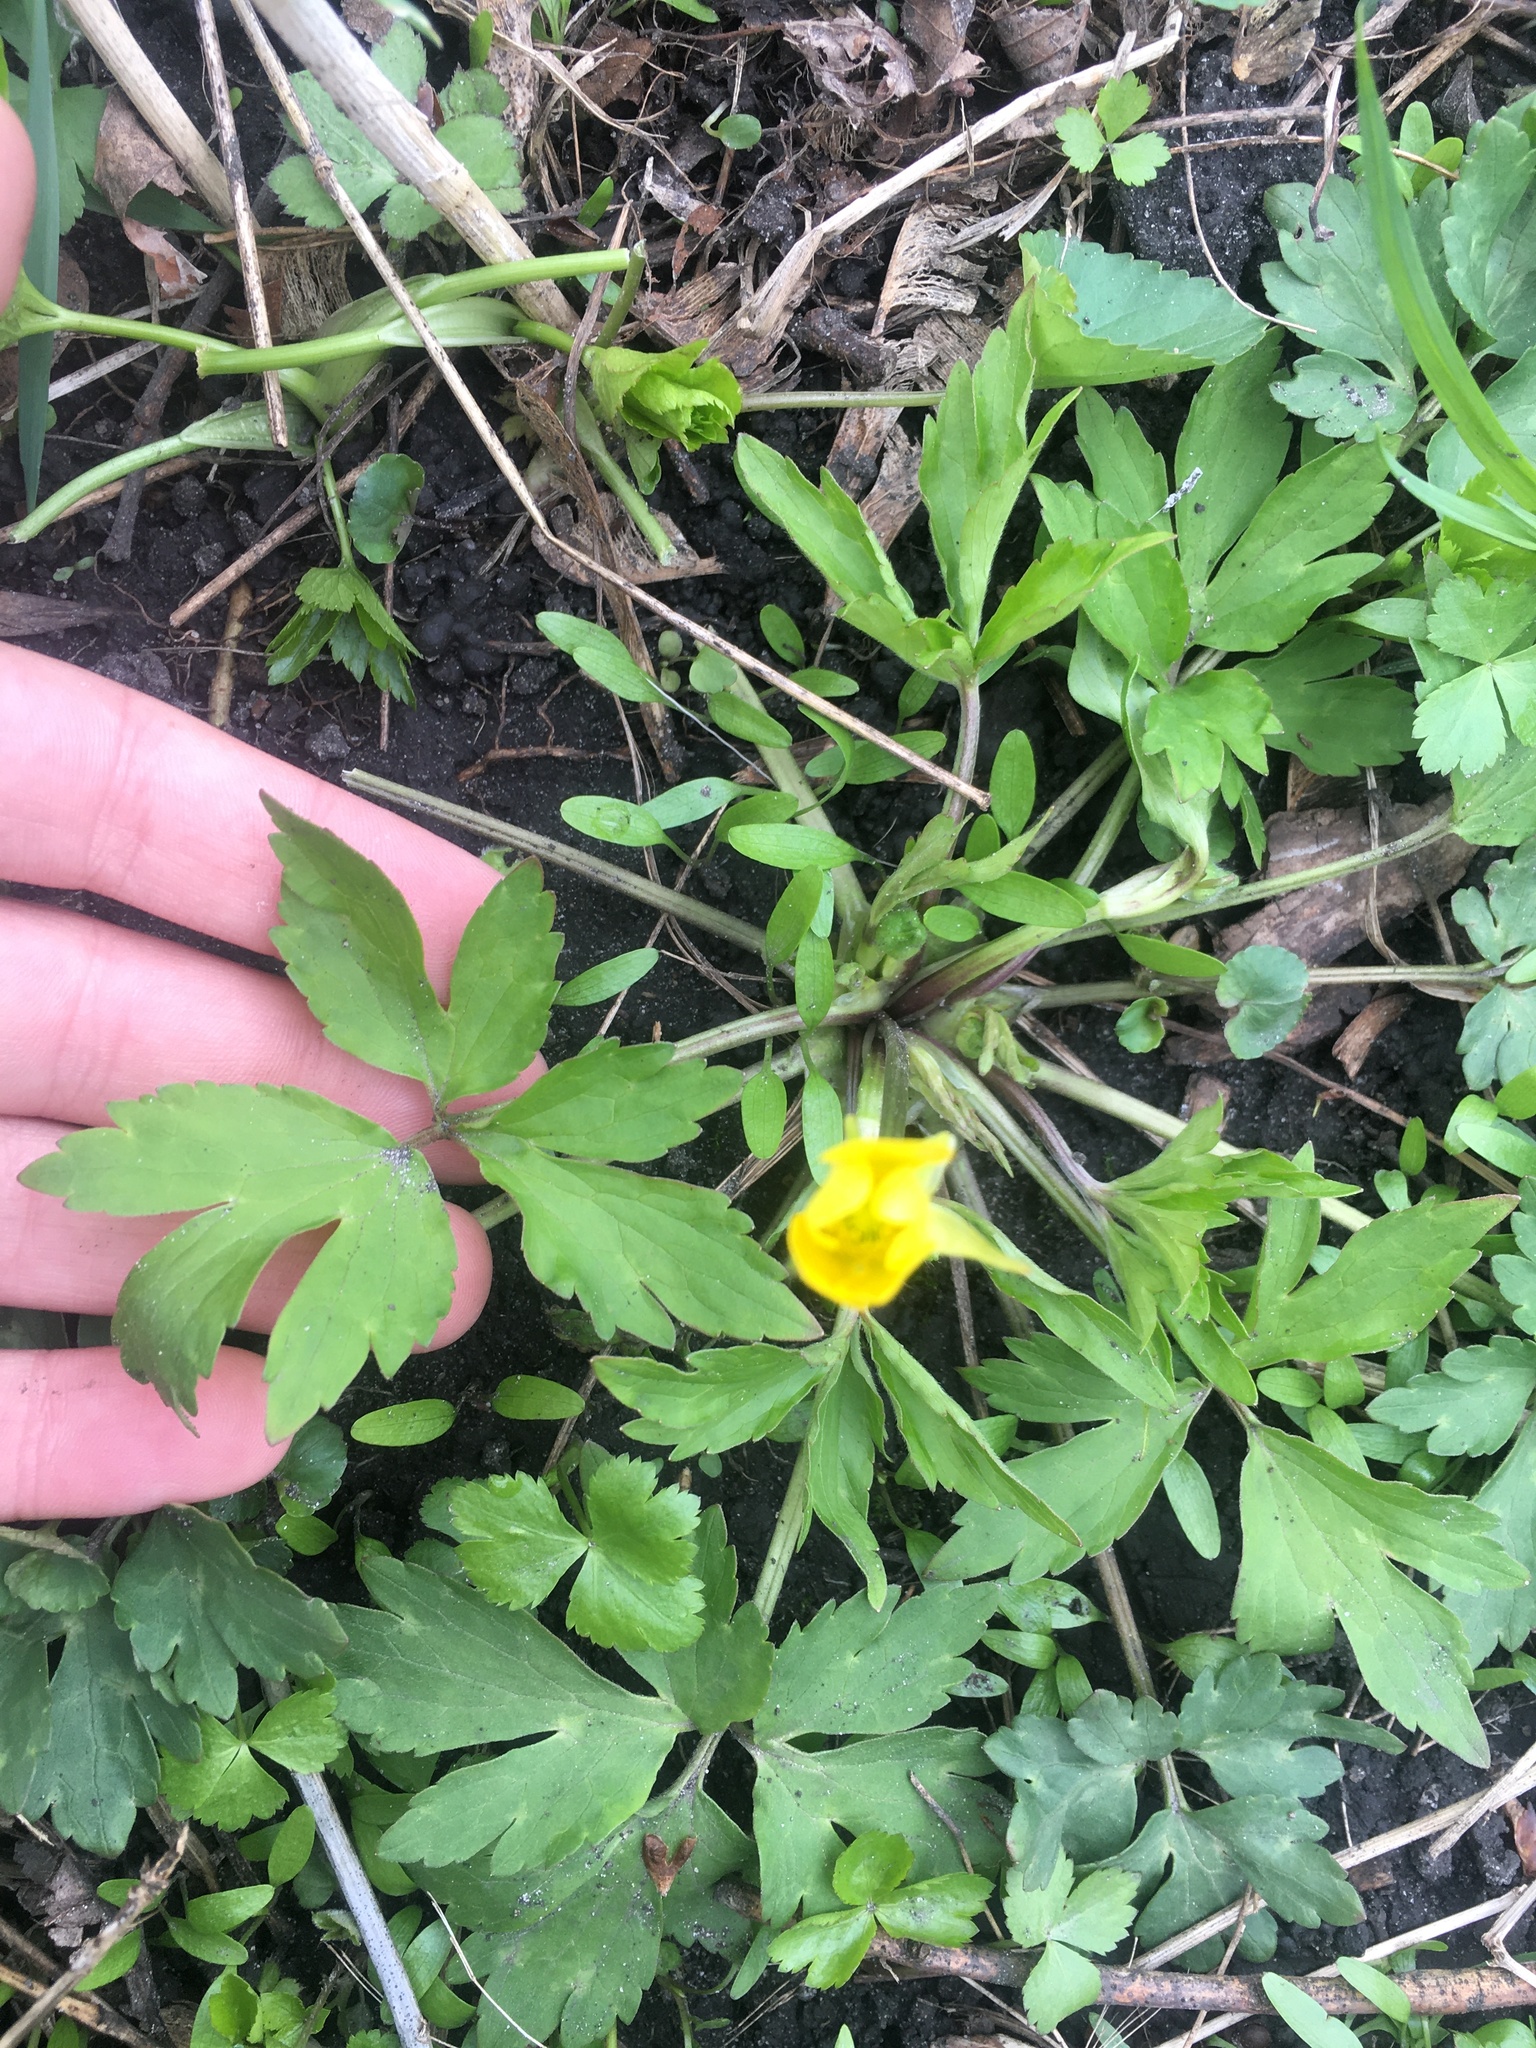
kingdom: Plantae
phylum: Tracheophyta
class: Magnoliopsida
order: Ranunculales
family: Ranunculaceae
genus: Ranunculus
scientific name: Ranunculus hispidus
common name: Bristly buttercup
